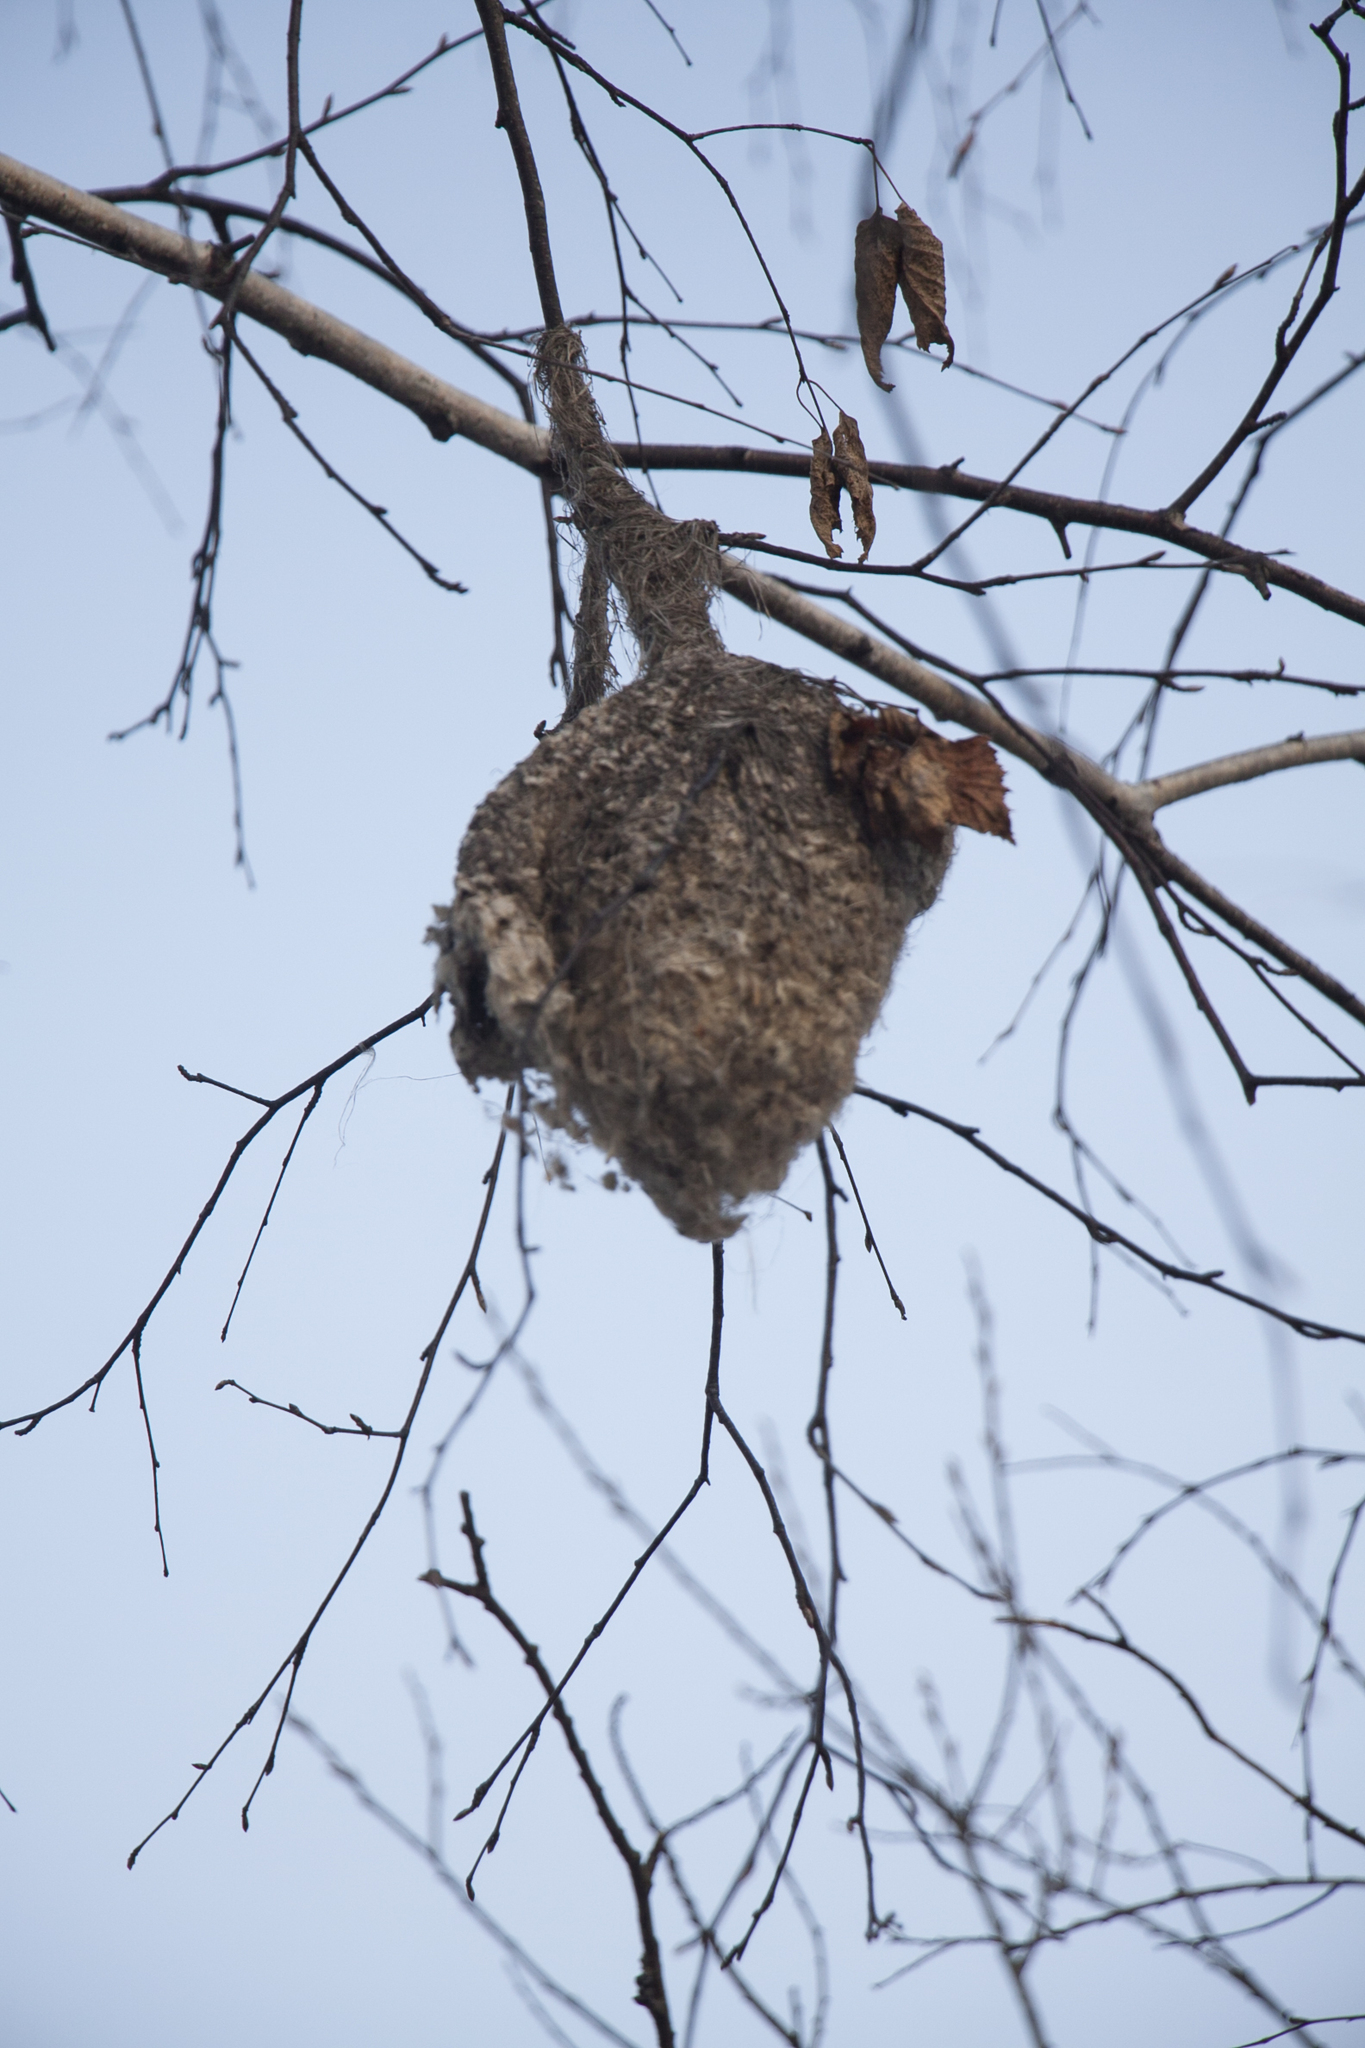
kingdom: Animalia
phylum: Chordata
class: Aves
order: Passeriformes
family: Remizidae
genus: Remiz
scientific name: Remiz pendulinus
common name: Eurasian penduline tit
